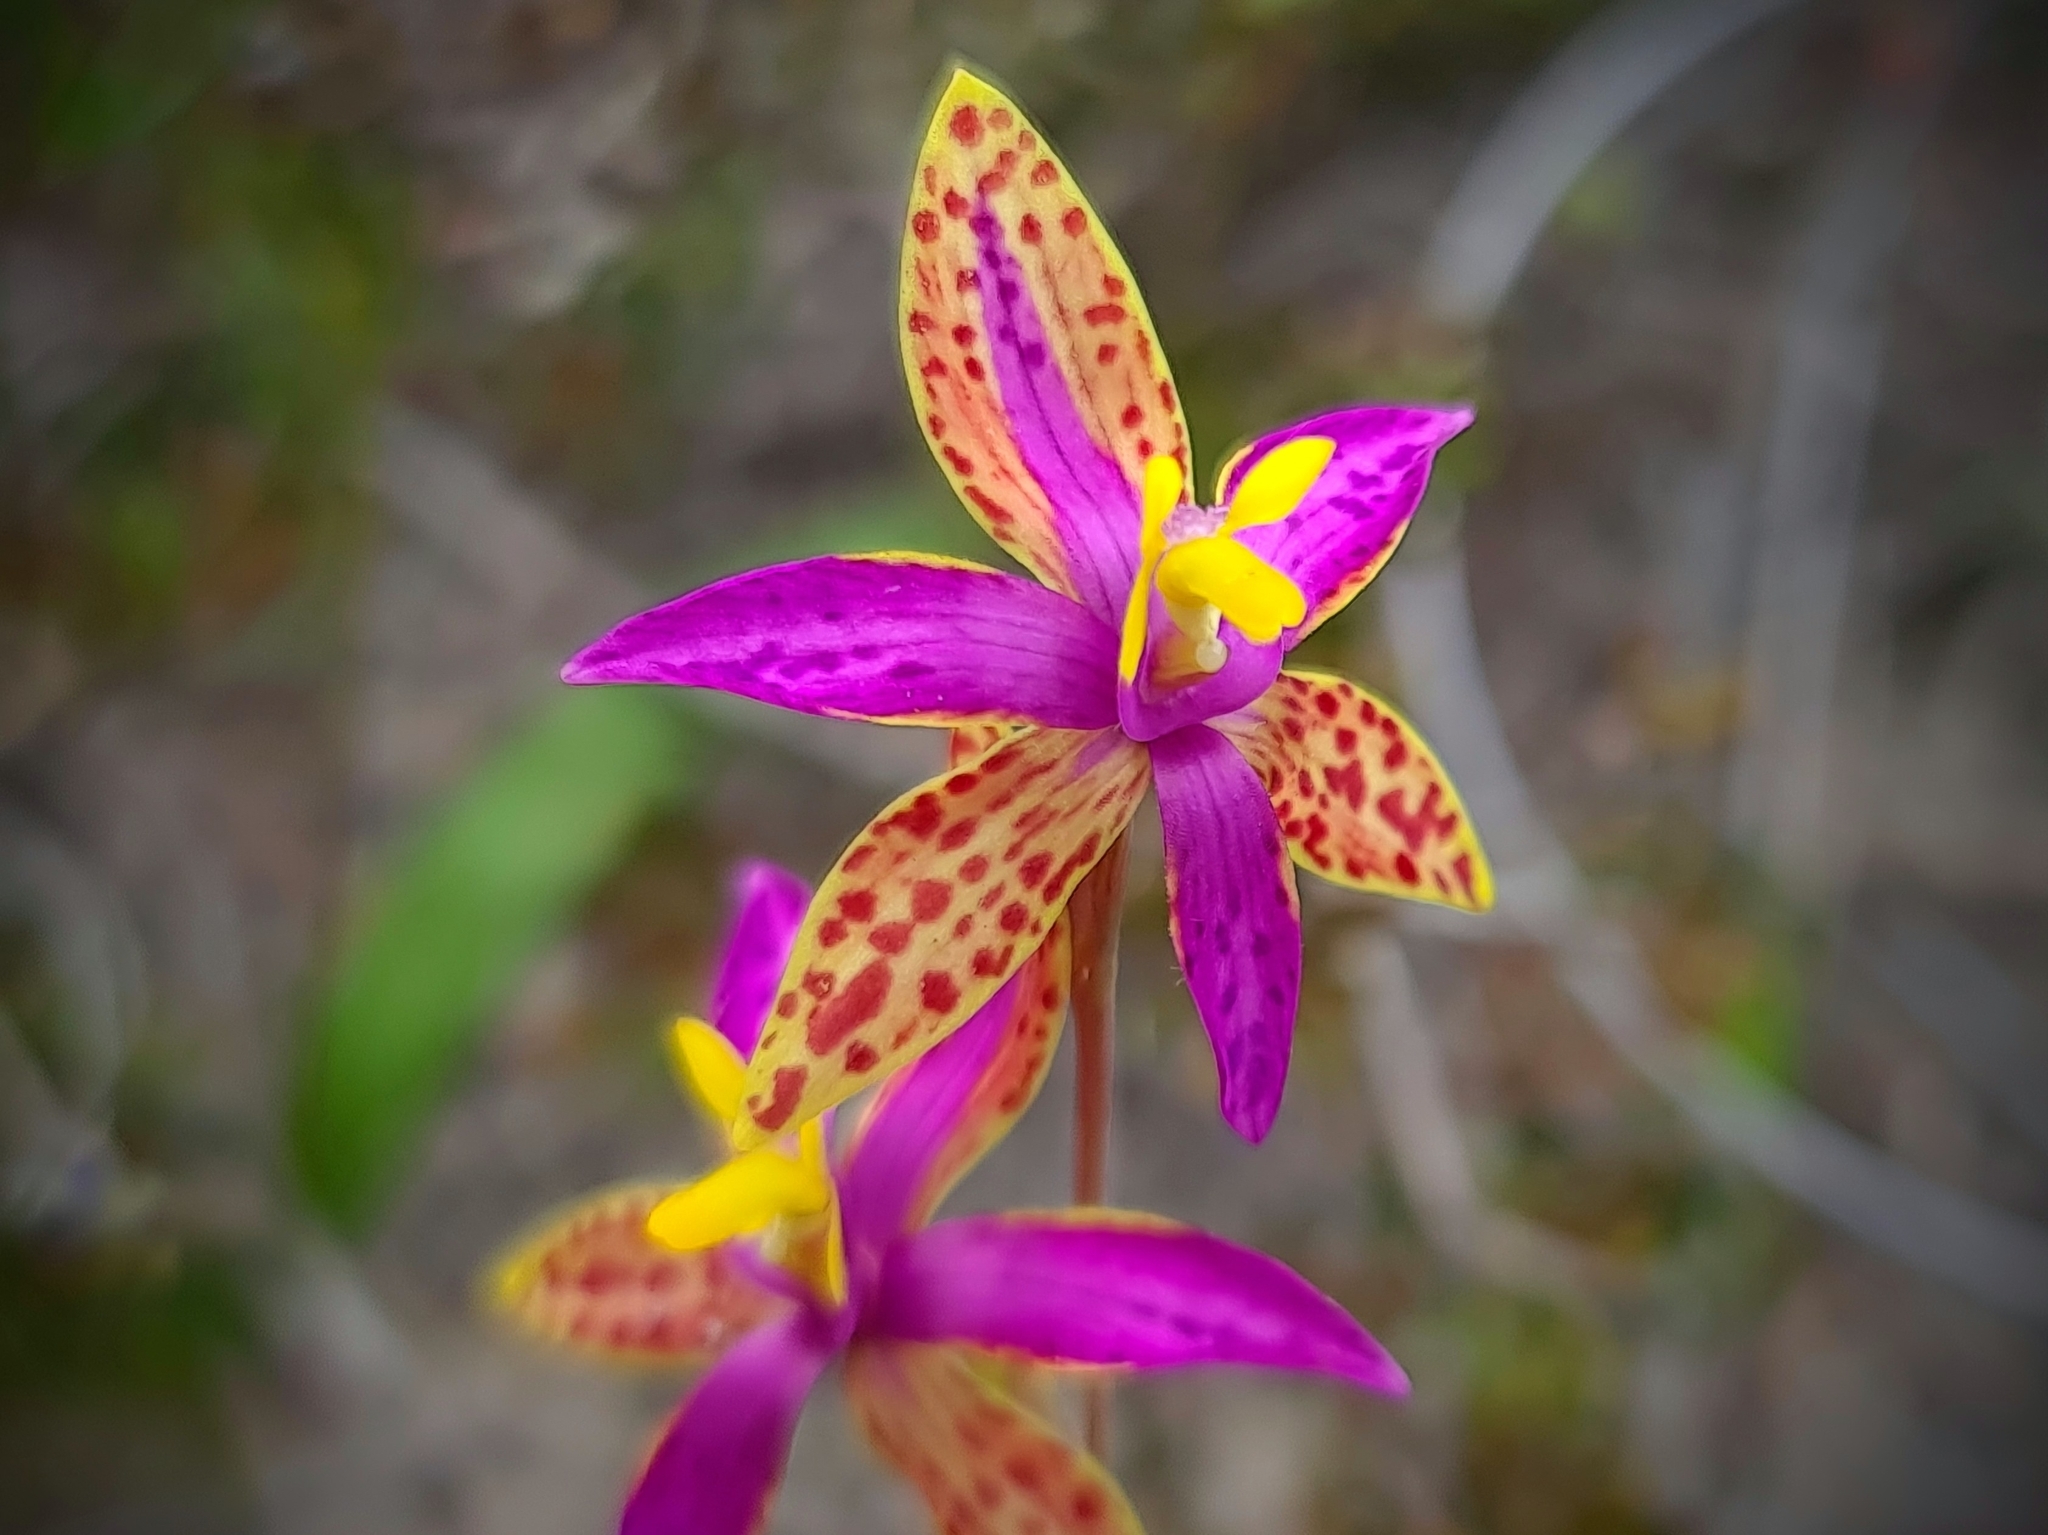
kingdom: Plantae
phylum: Tracheophyta
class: Liliopsida
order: Asparagales
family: Orchidaceae
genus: Thelymitra
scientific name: Thelymitra pulcherrima
